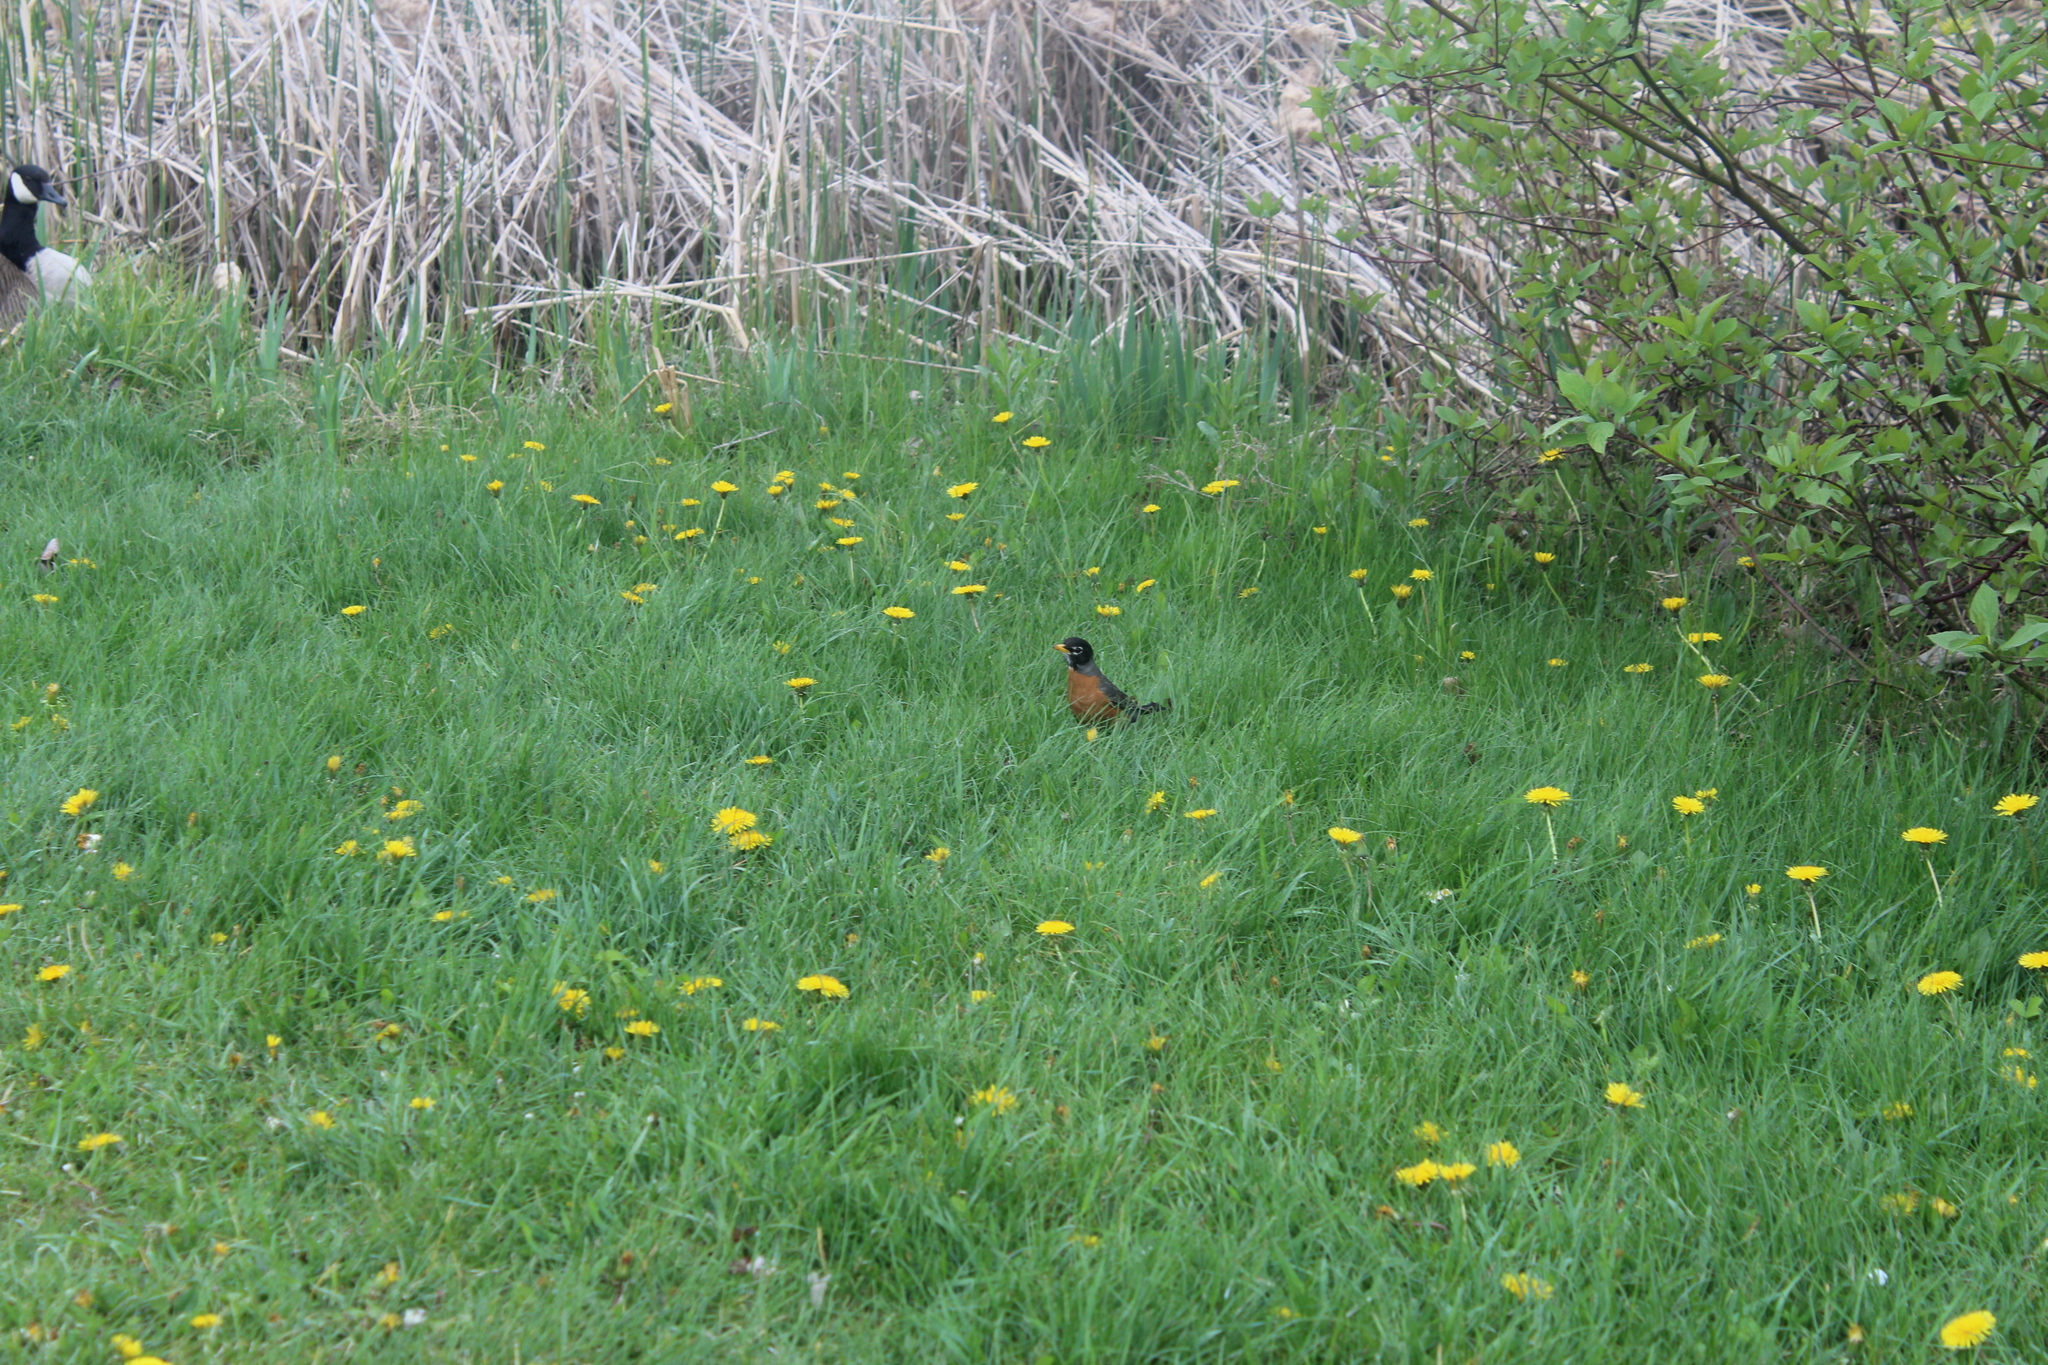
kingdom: Animalia
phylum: Chordata
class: Aves
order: Passeriformes
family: Turdidae
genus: Turdus
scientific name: Turdus migratorius
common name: American robin
